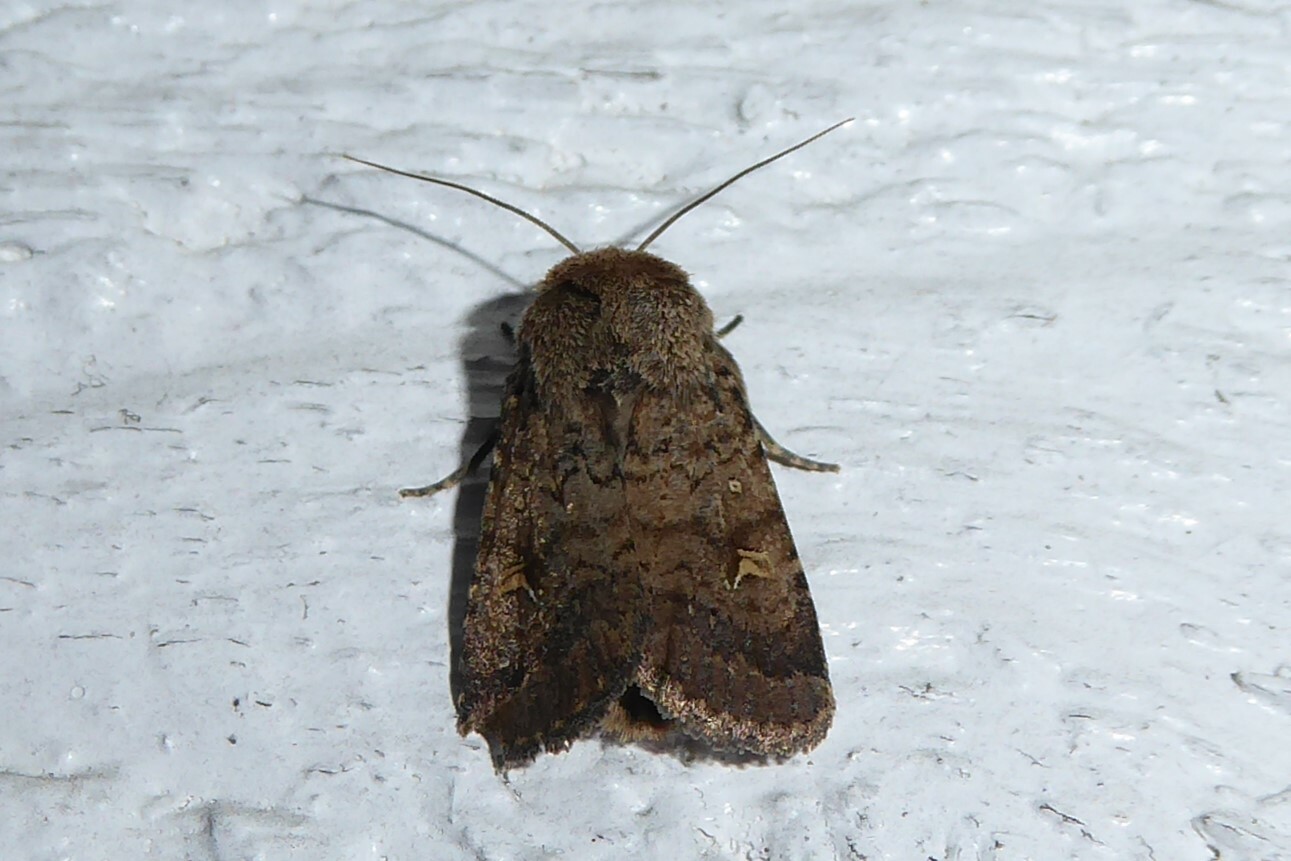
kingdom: Animalia
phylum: Arthropoda
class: Insecta
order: Lepidoptera
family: Noctuidae
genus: Proteuxoa
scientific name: Proteuxoa tetronycha
